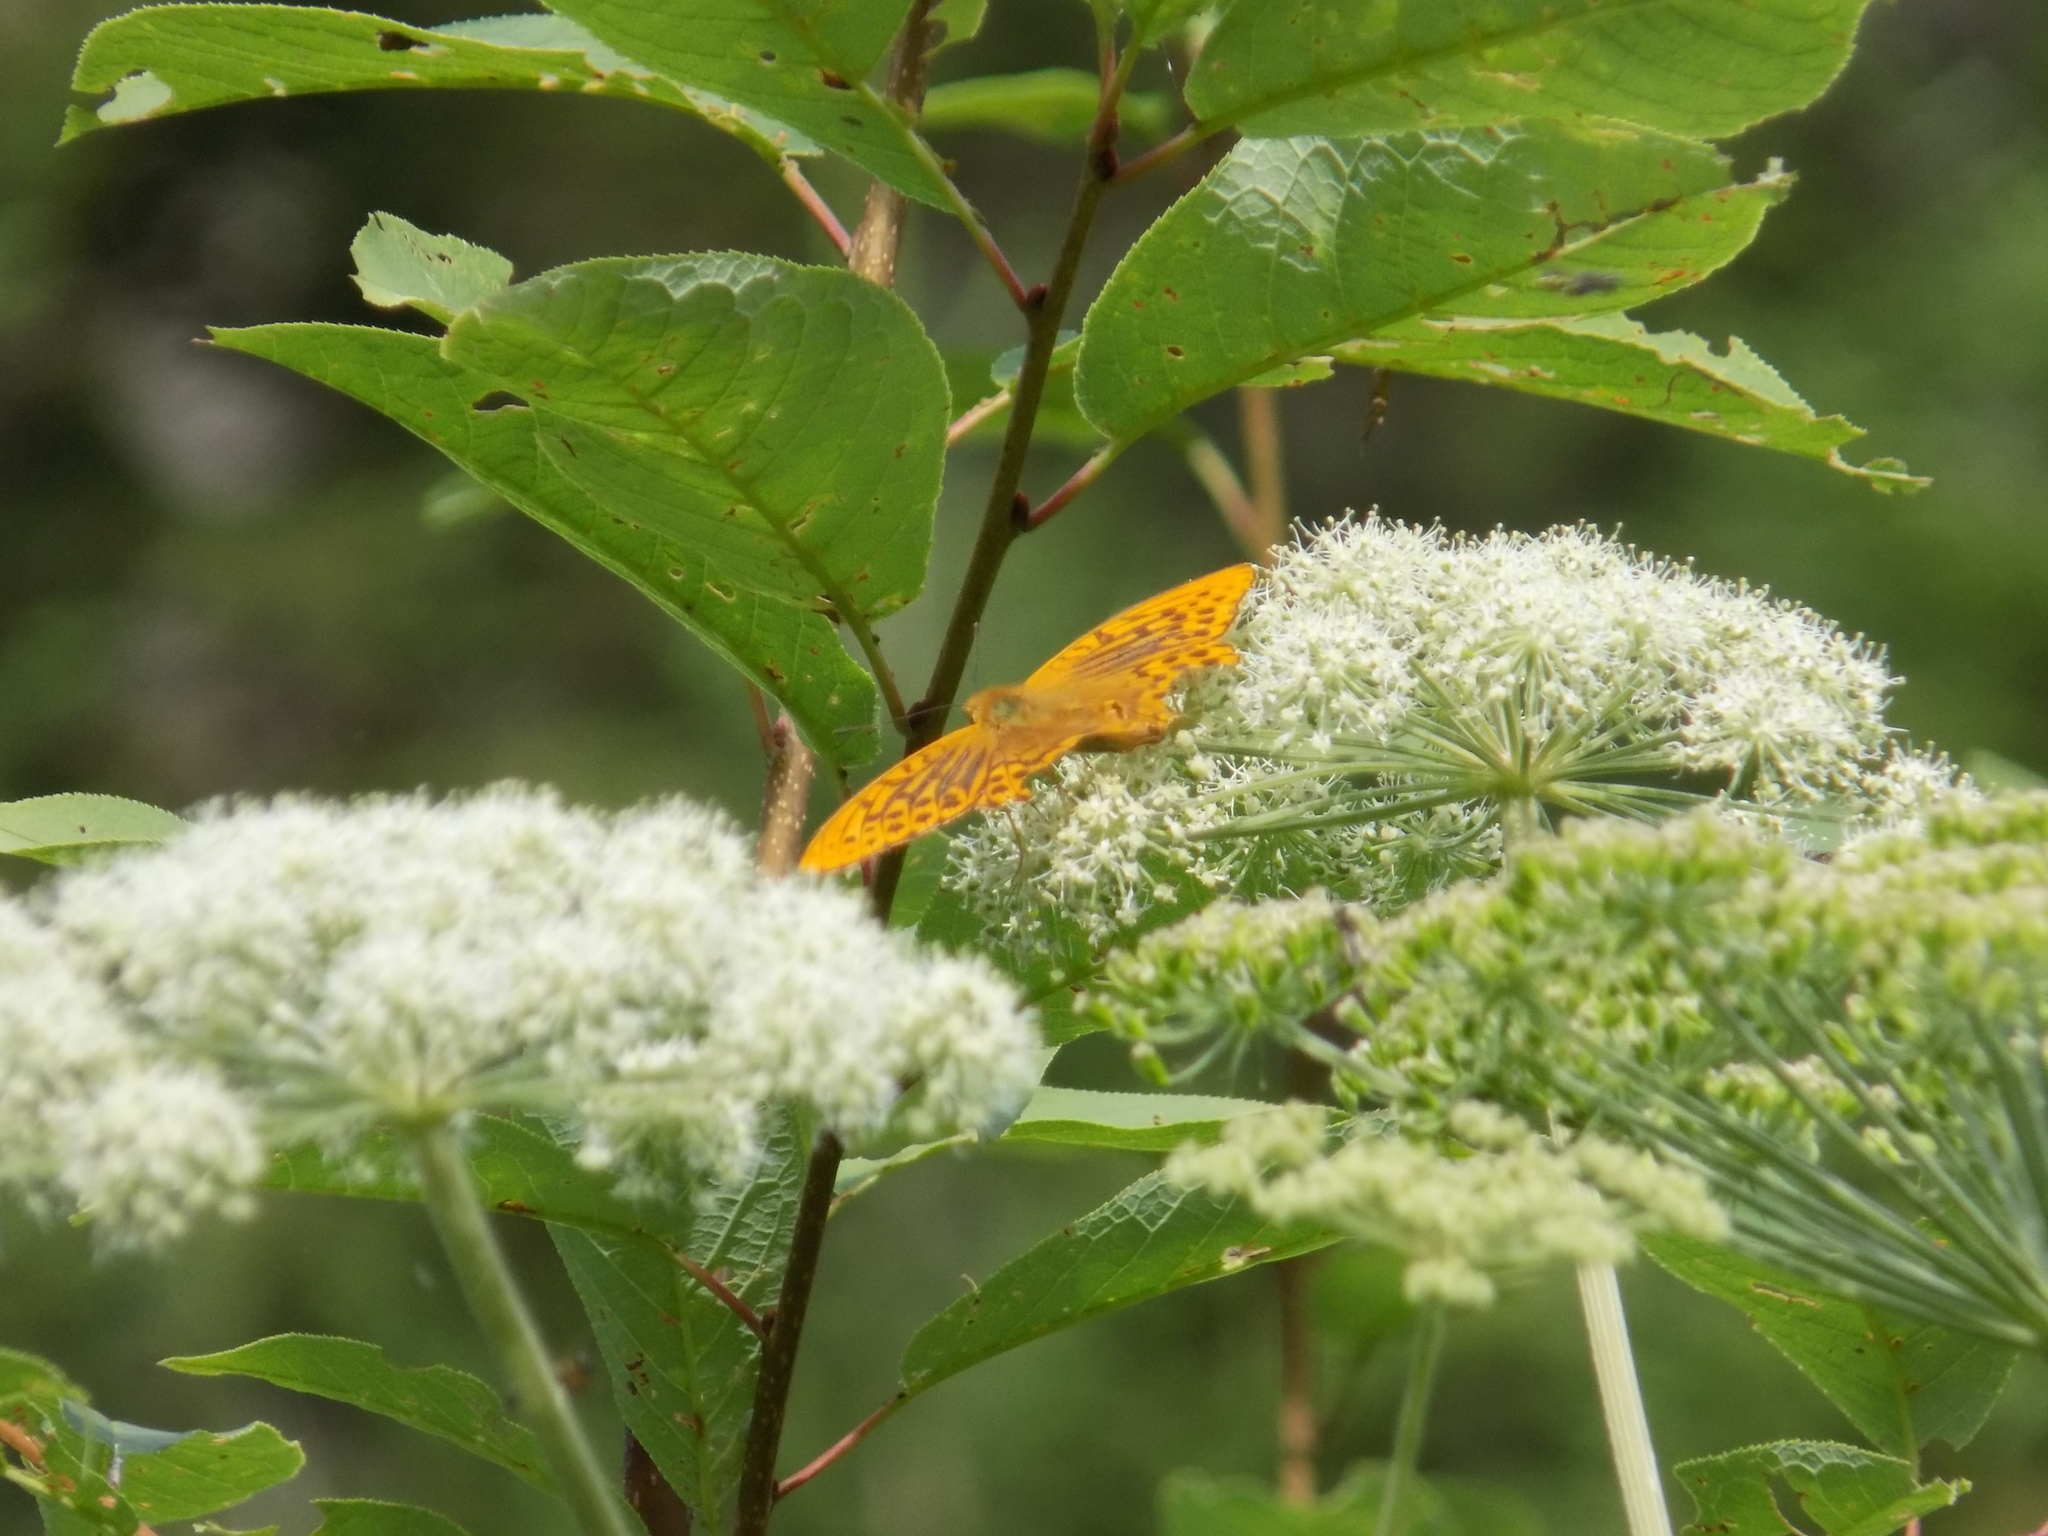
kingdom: Animalia
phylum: Arthropoda
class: Insecta
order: Lepidoptera
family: Nymphalidae
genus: Argynnis
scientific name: Argynnis paphia
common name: Silver-washed fritillary
